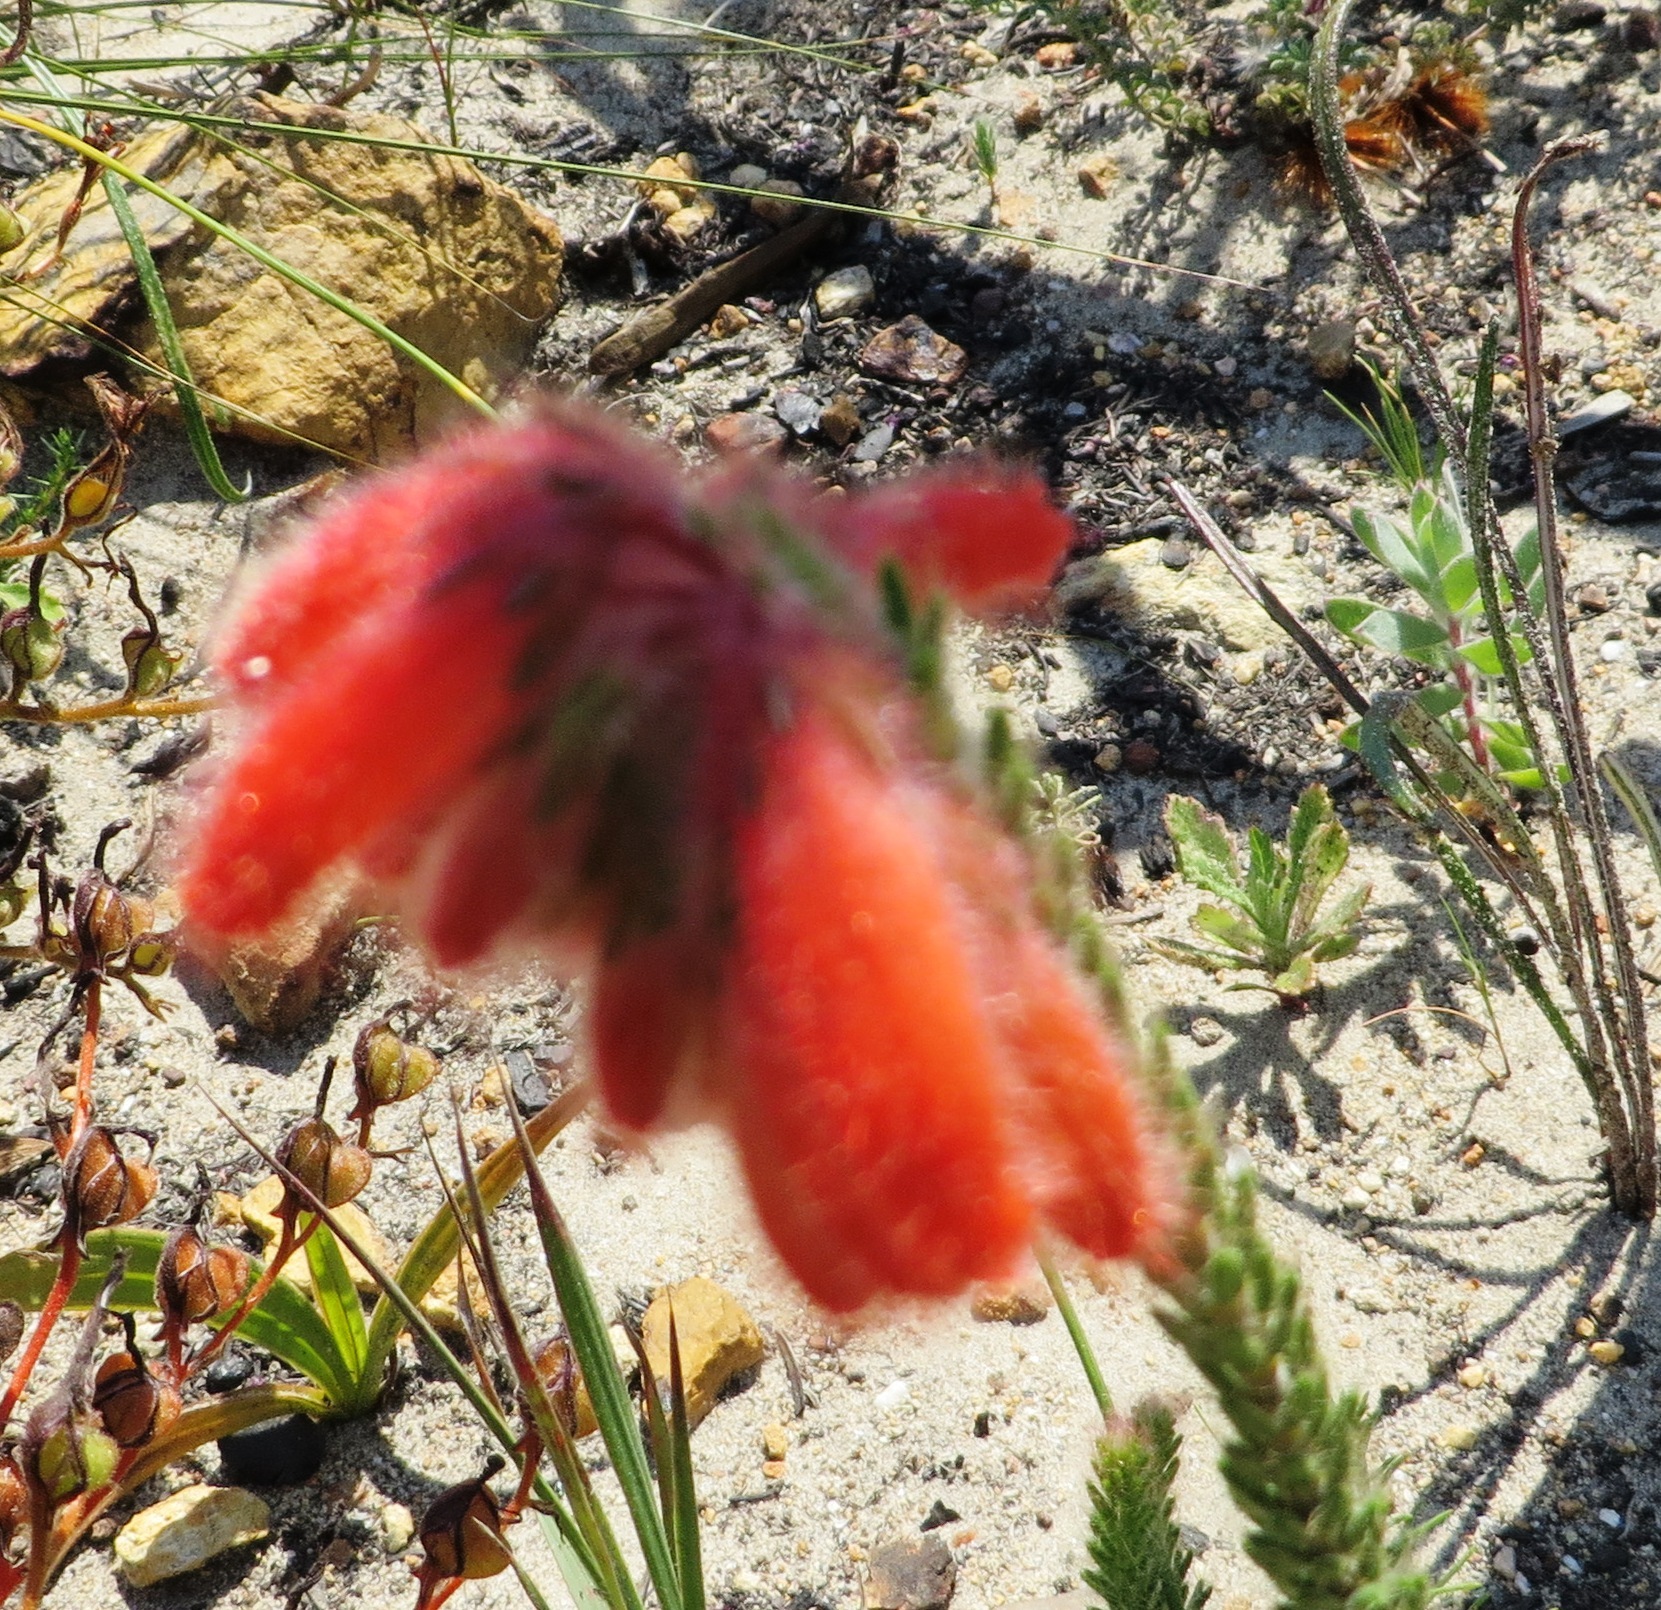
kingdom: Plantae
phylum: Tracheophyta
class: Magnoliopsida
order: Ericales
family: Ericaceae
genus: Erica
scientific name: Erica cerinthoides
